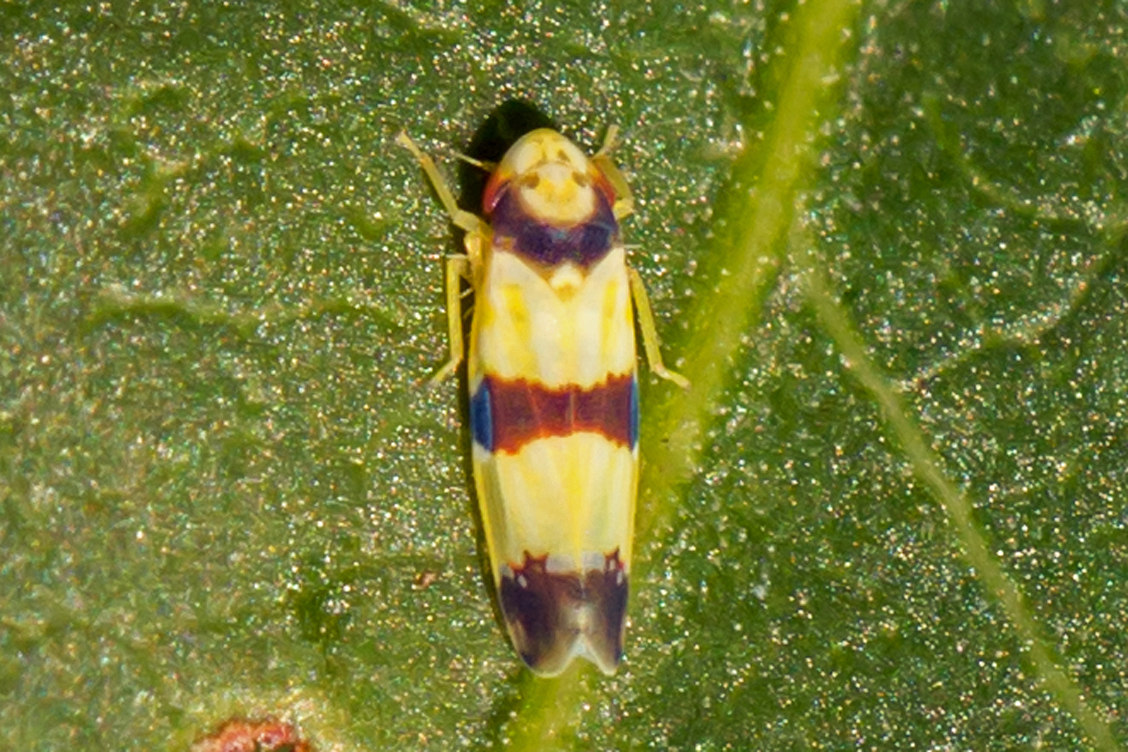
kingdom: Animalia
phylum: Arthropoda
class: Insecta
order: Hemiptera
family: Cicadellidae
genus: Erythroneura
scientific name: Erythroneura calycula
